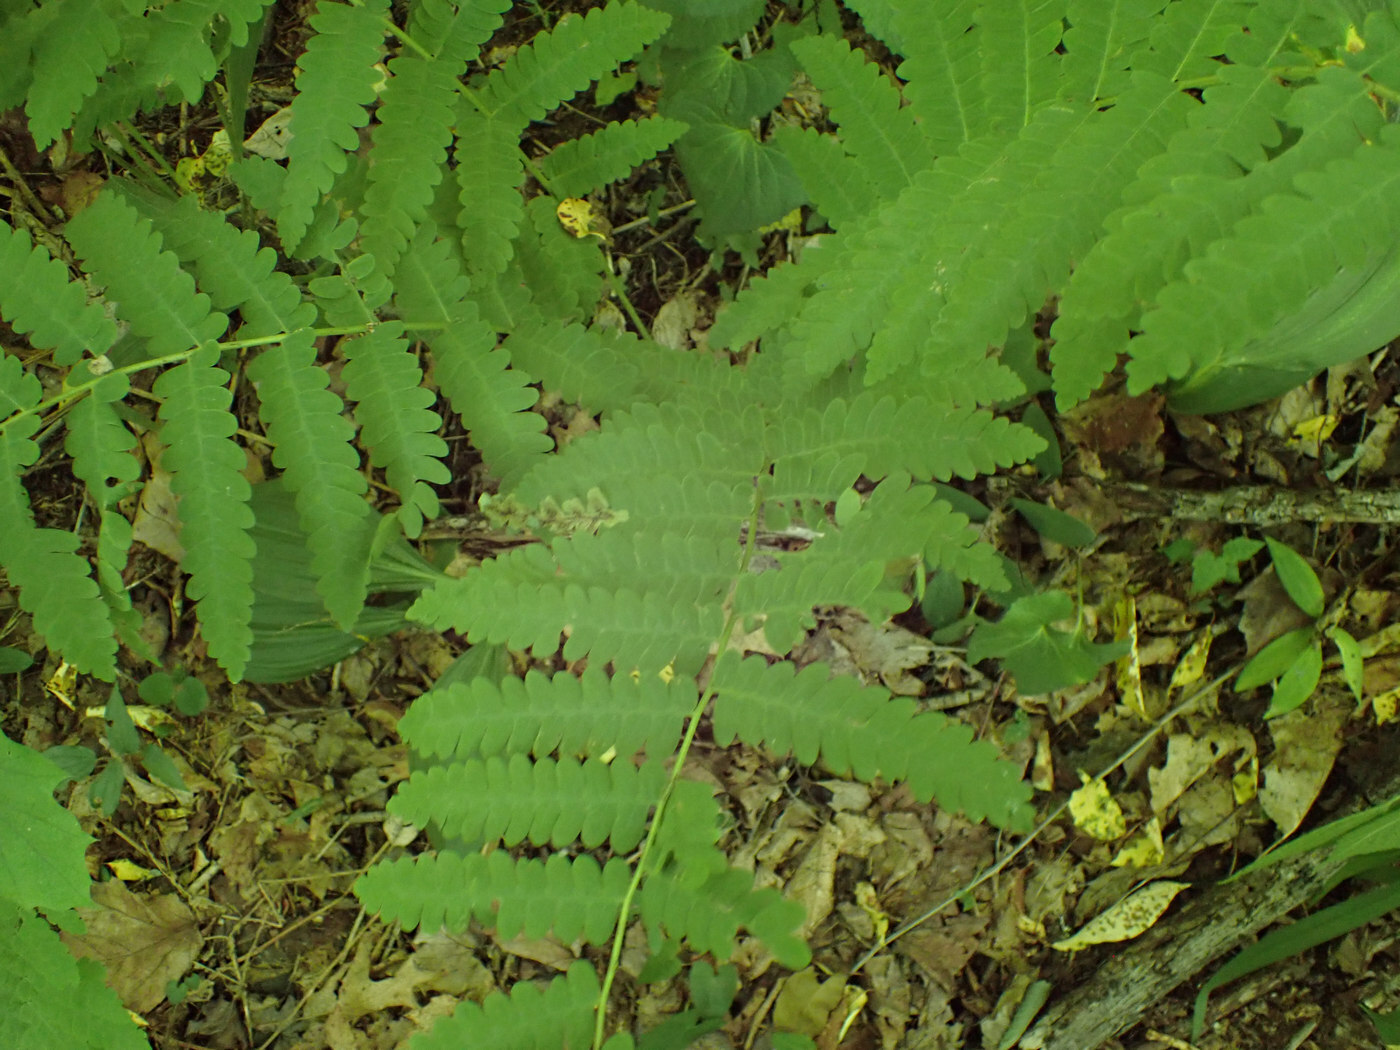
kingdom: Animalia
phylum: Arthropoda
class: Insecta
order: Diptera
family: Anthomyiidae
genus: Chirosia
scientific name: Chirosia filicis
